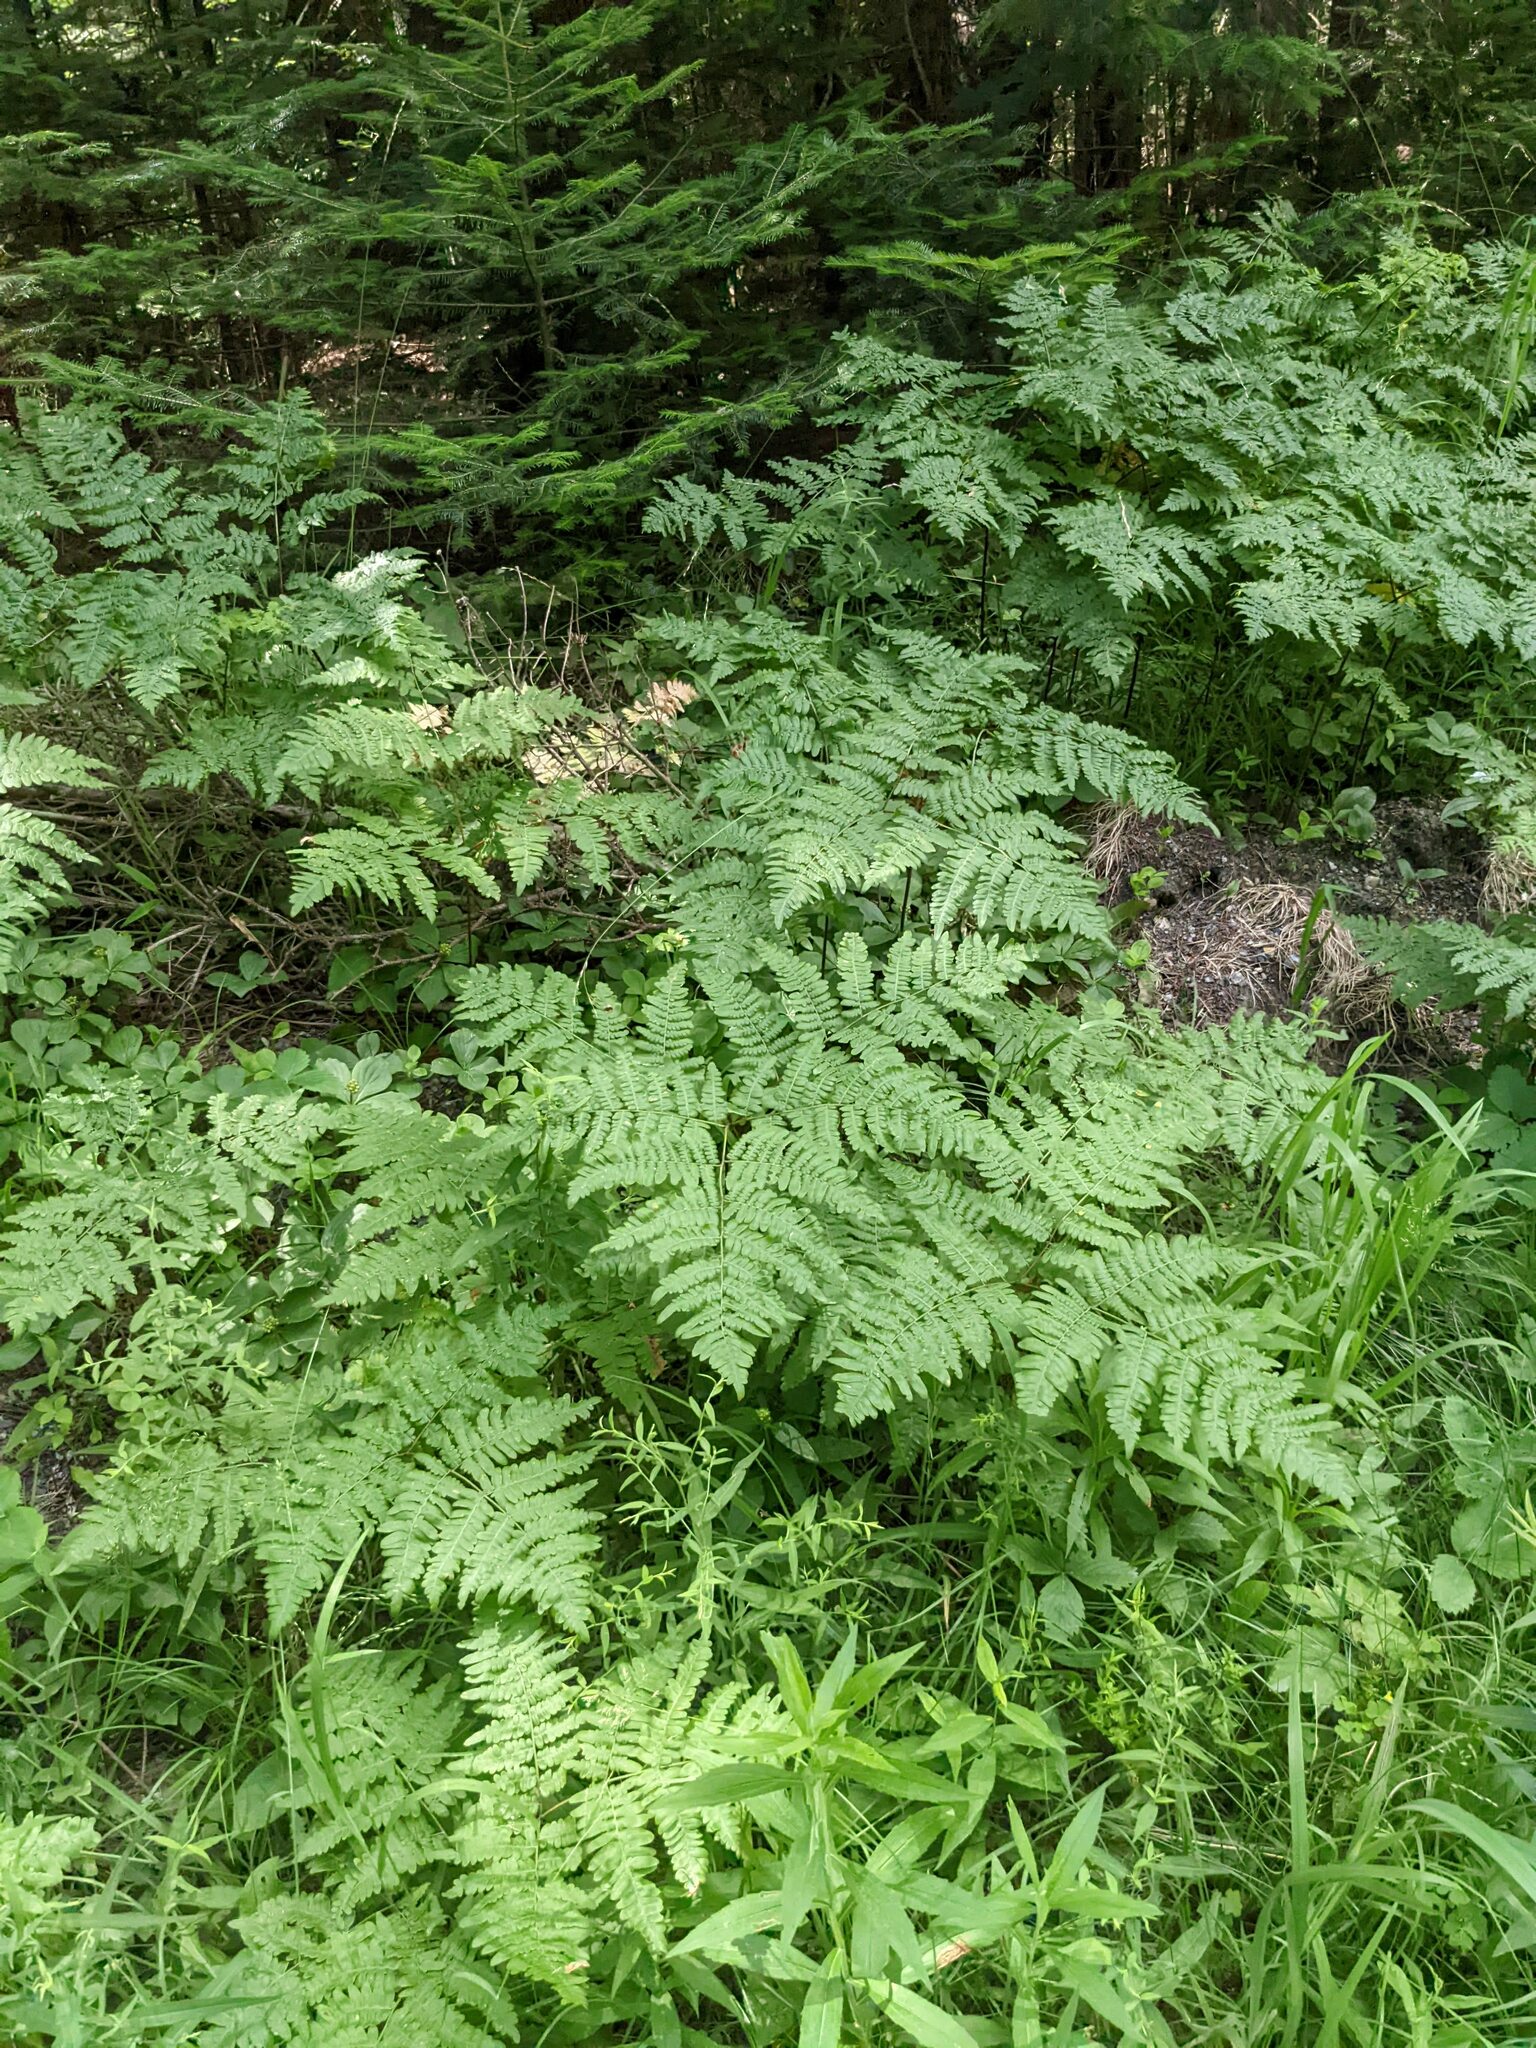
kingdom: Plantae
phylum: Tracheophyta
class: Polypodiopsida
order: Polypodiales
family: Dennstaedtiaceae
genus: Pteridium
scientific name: Pteridium aquilinum
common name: Bracken
